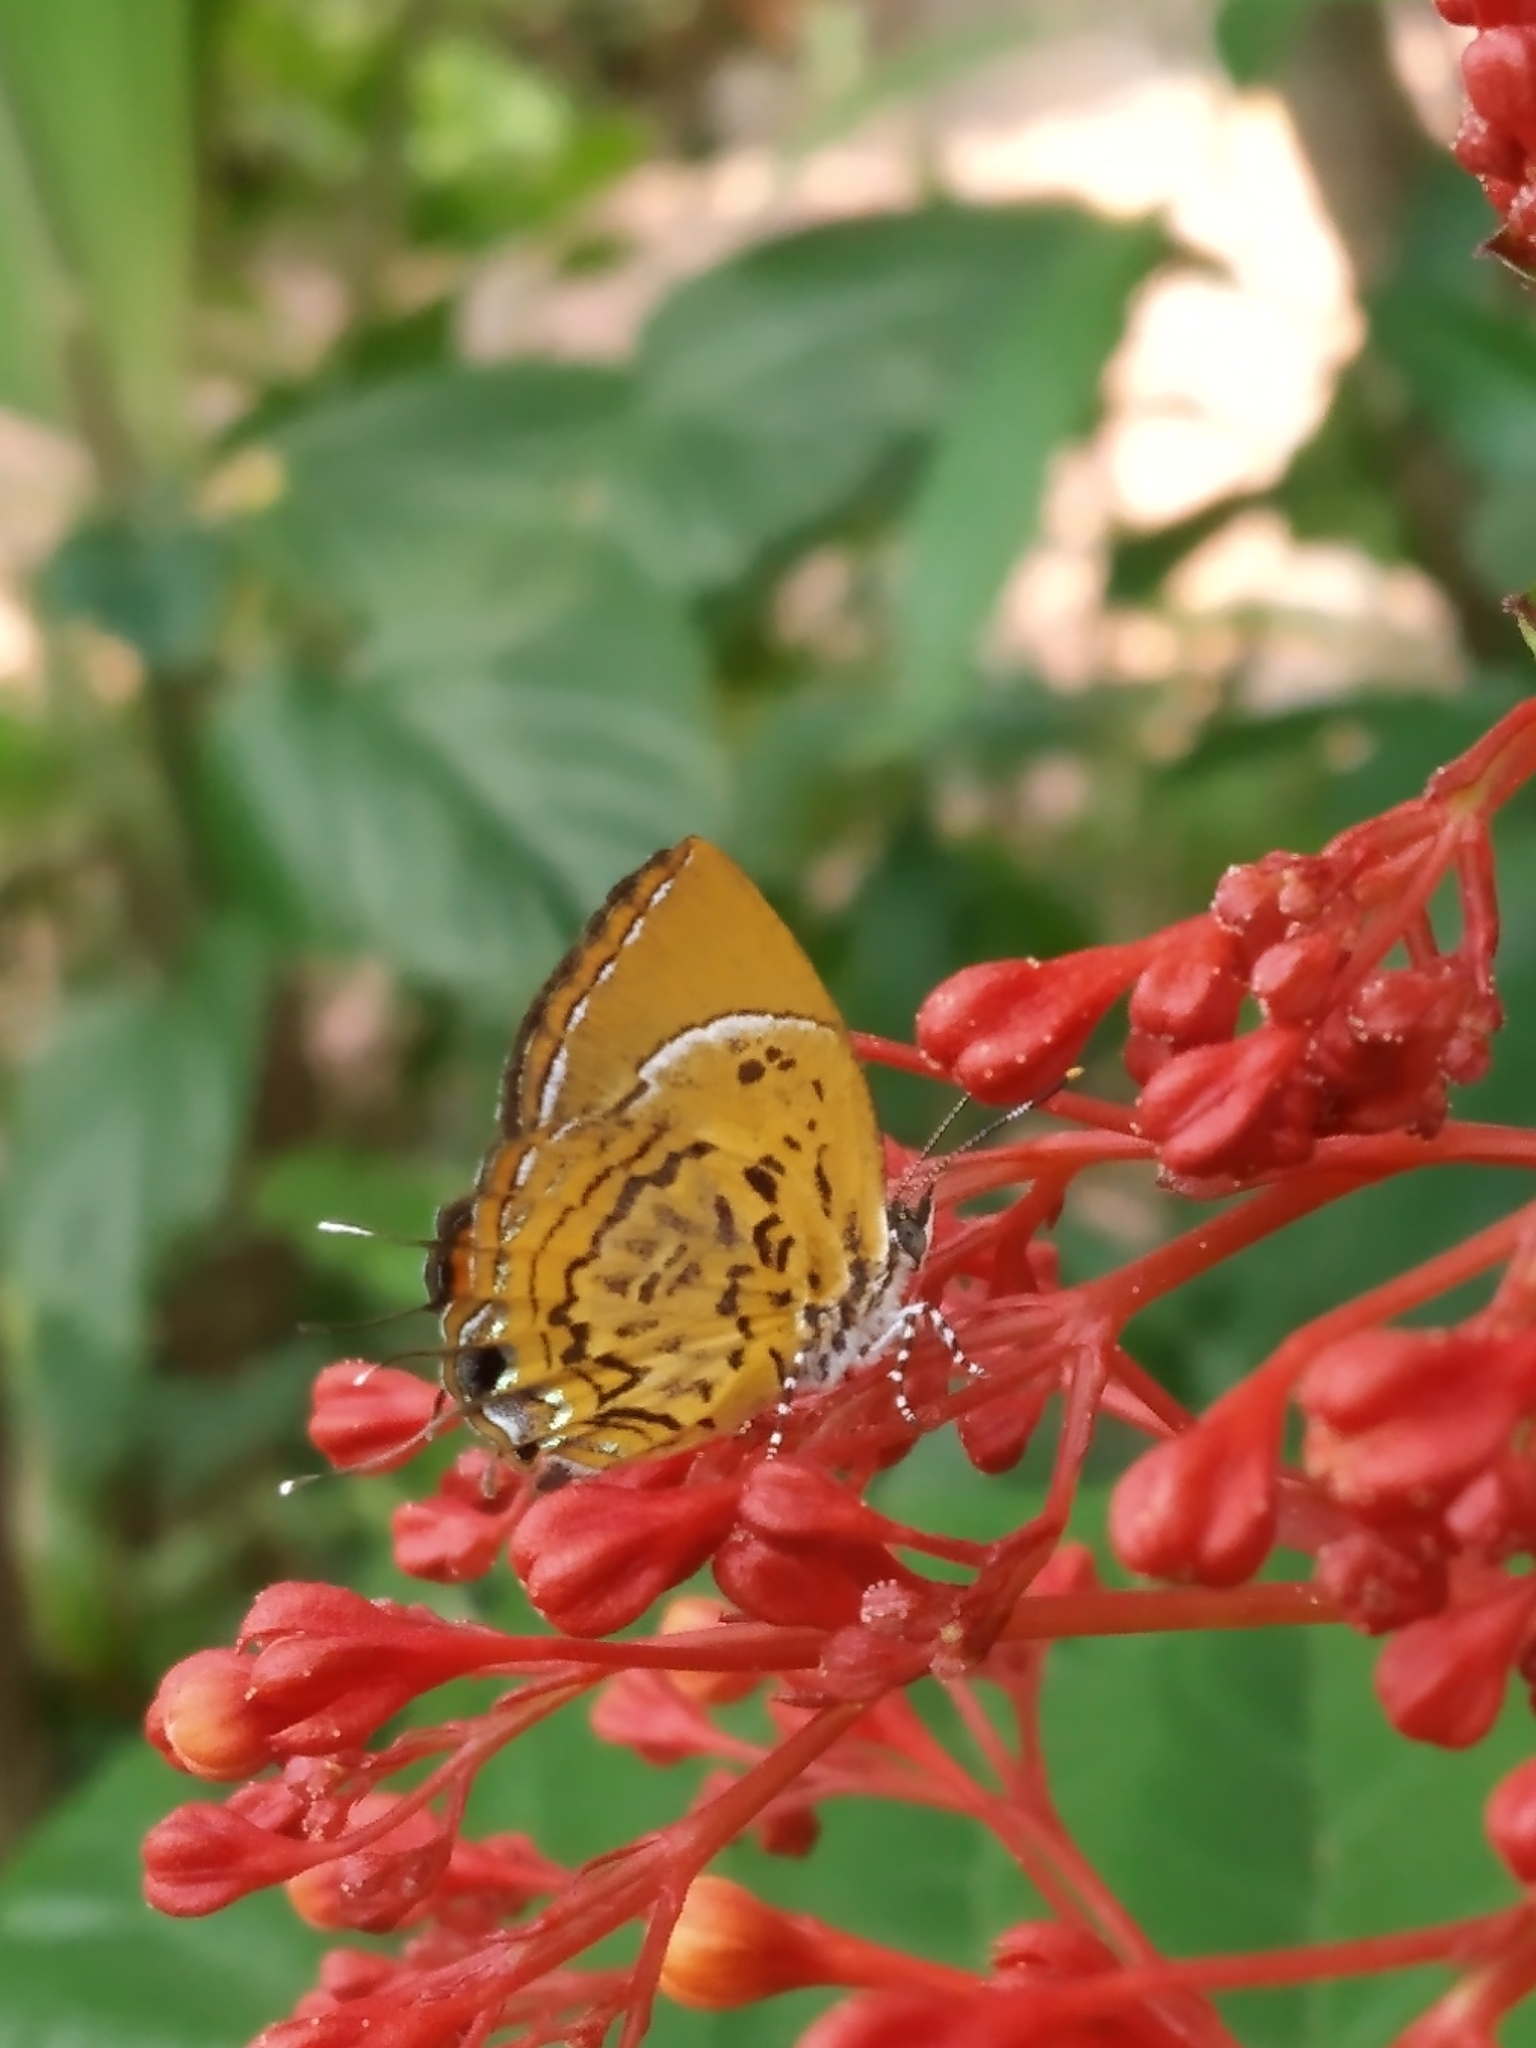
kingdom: Animalia
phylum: Arthropoda
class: Insecta
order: Lepidoptera
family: Lycaenidae
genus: Rathinda
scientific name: Rathinda amor
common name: Monkey puzzle
